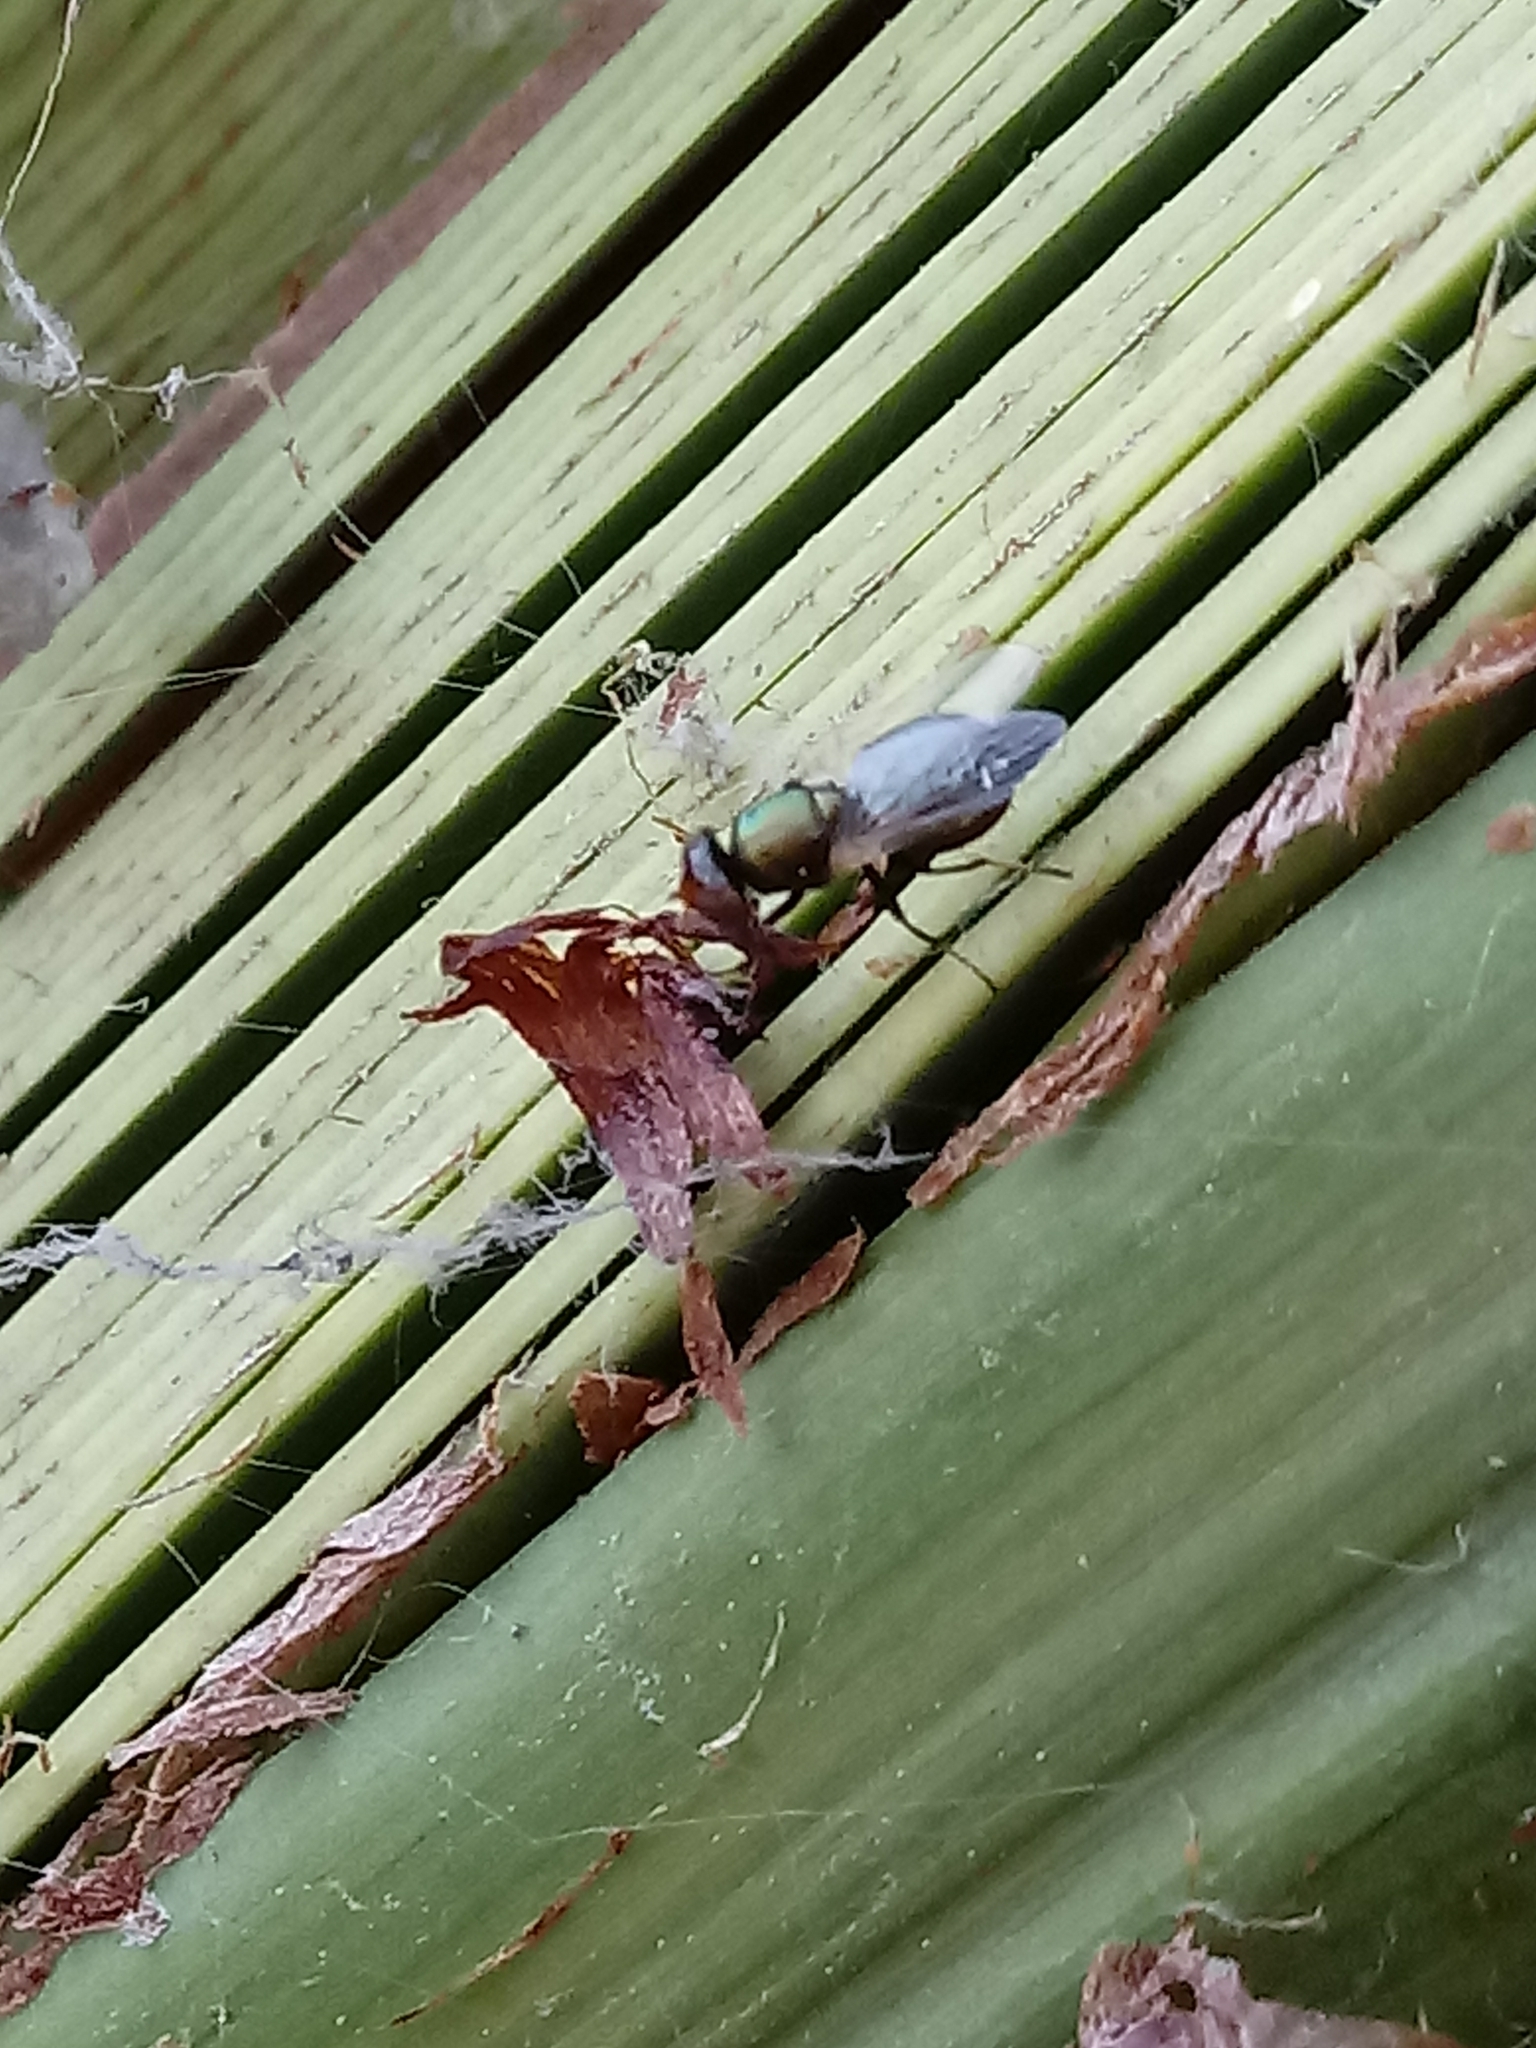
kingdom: Animalia
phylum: Arthropoda
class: Insecta
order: Diptera
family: Ulidiidae
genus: Physiphora
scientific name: Physiphora alceae
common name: Picture-winged fly
